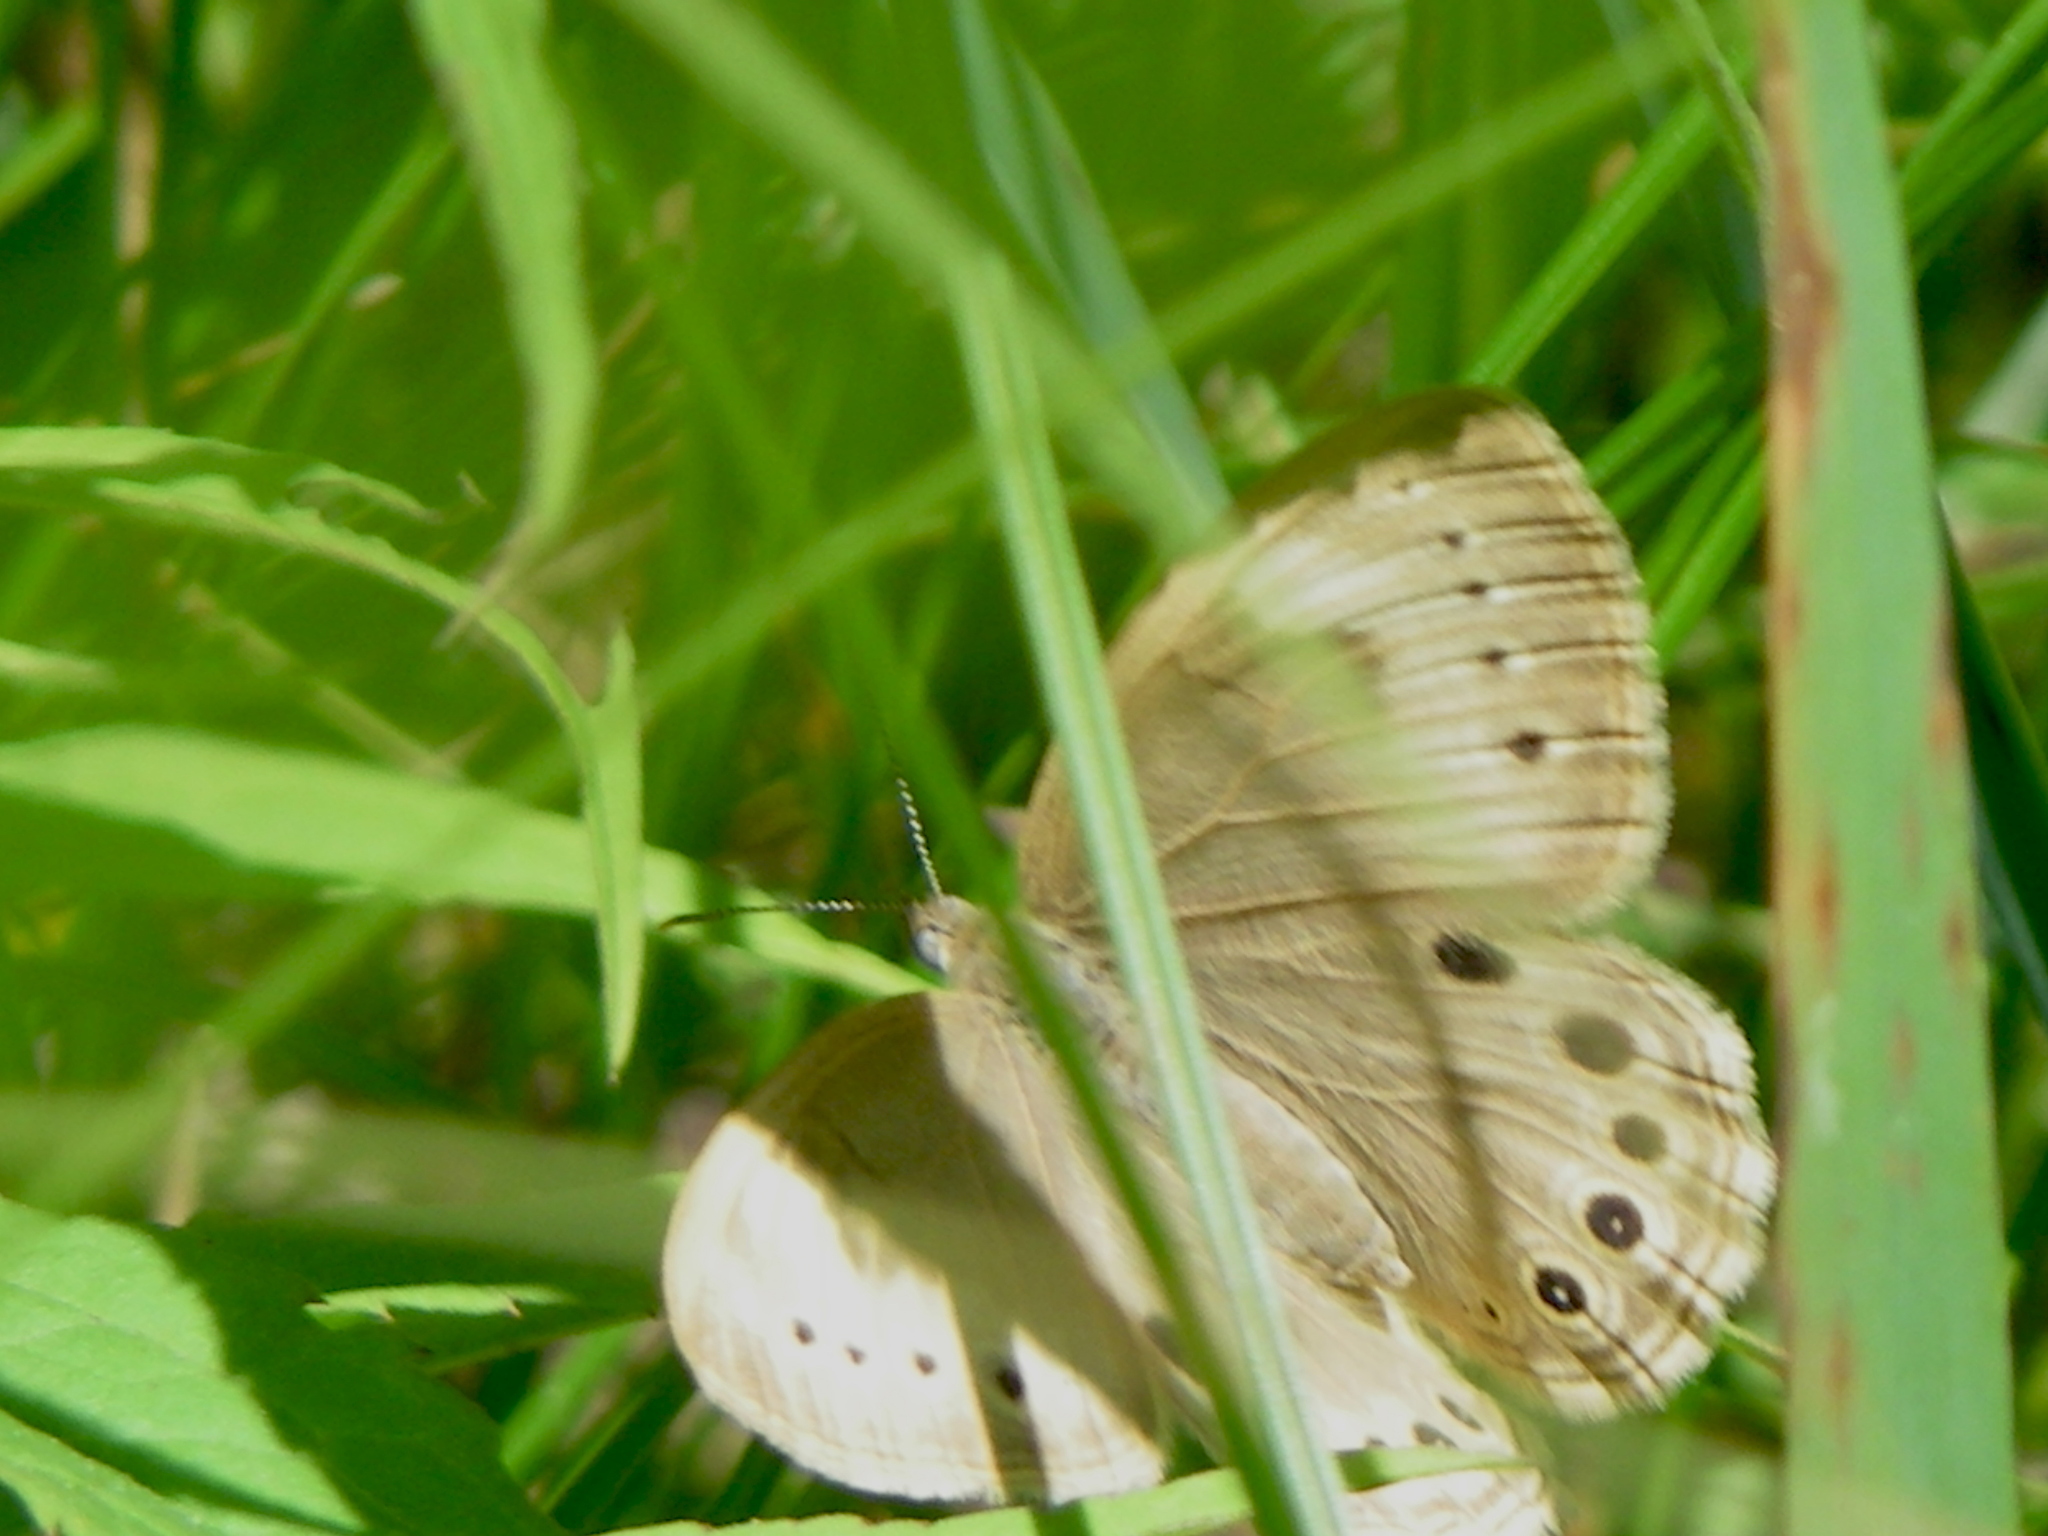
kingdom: Animalia
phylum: Arthropoda
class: Insecta
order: Lepidoptera
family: Nymphalidae
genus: Lethe
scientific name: Lethe eurydice
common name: Eyed brown
